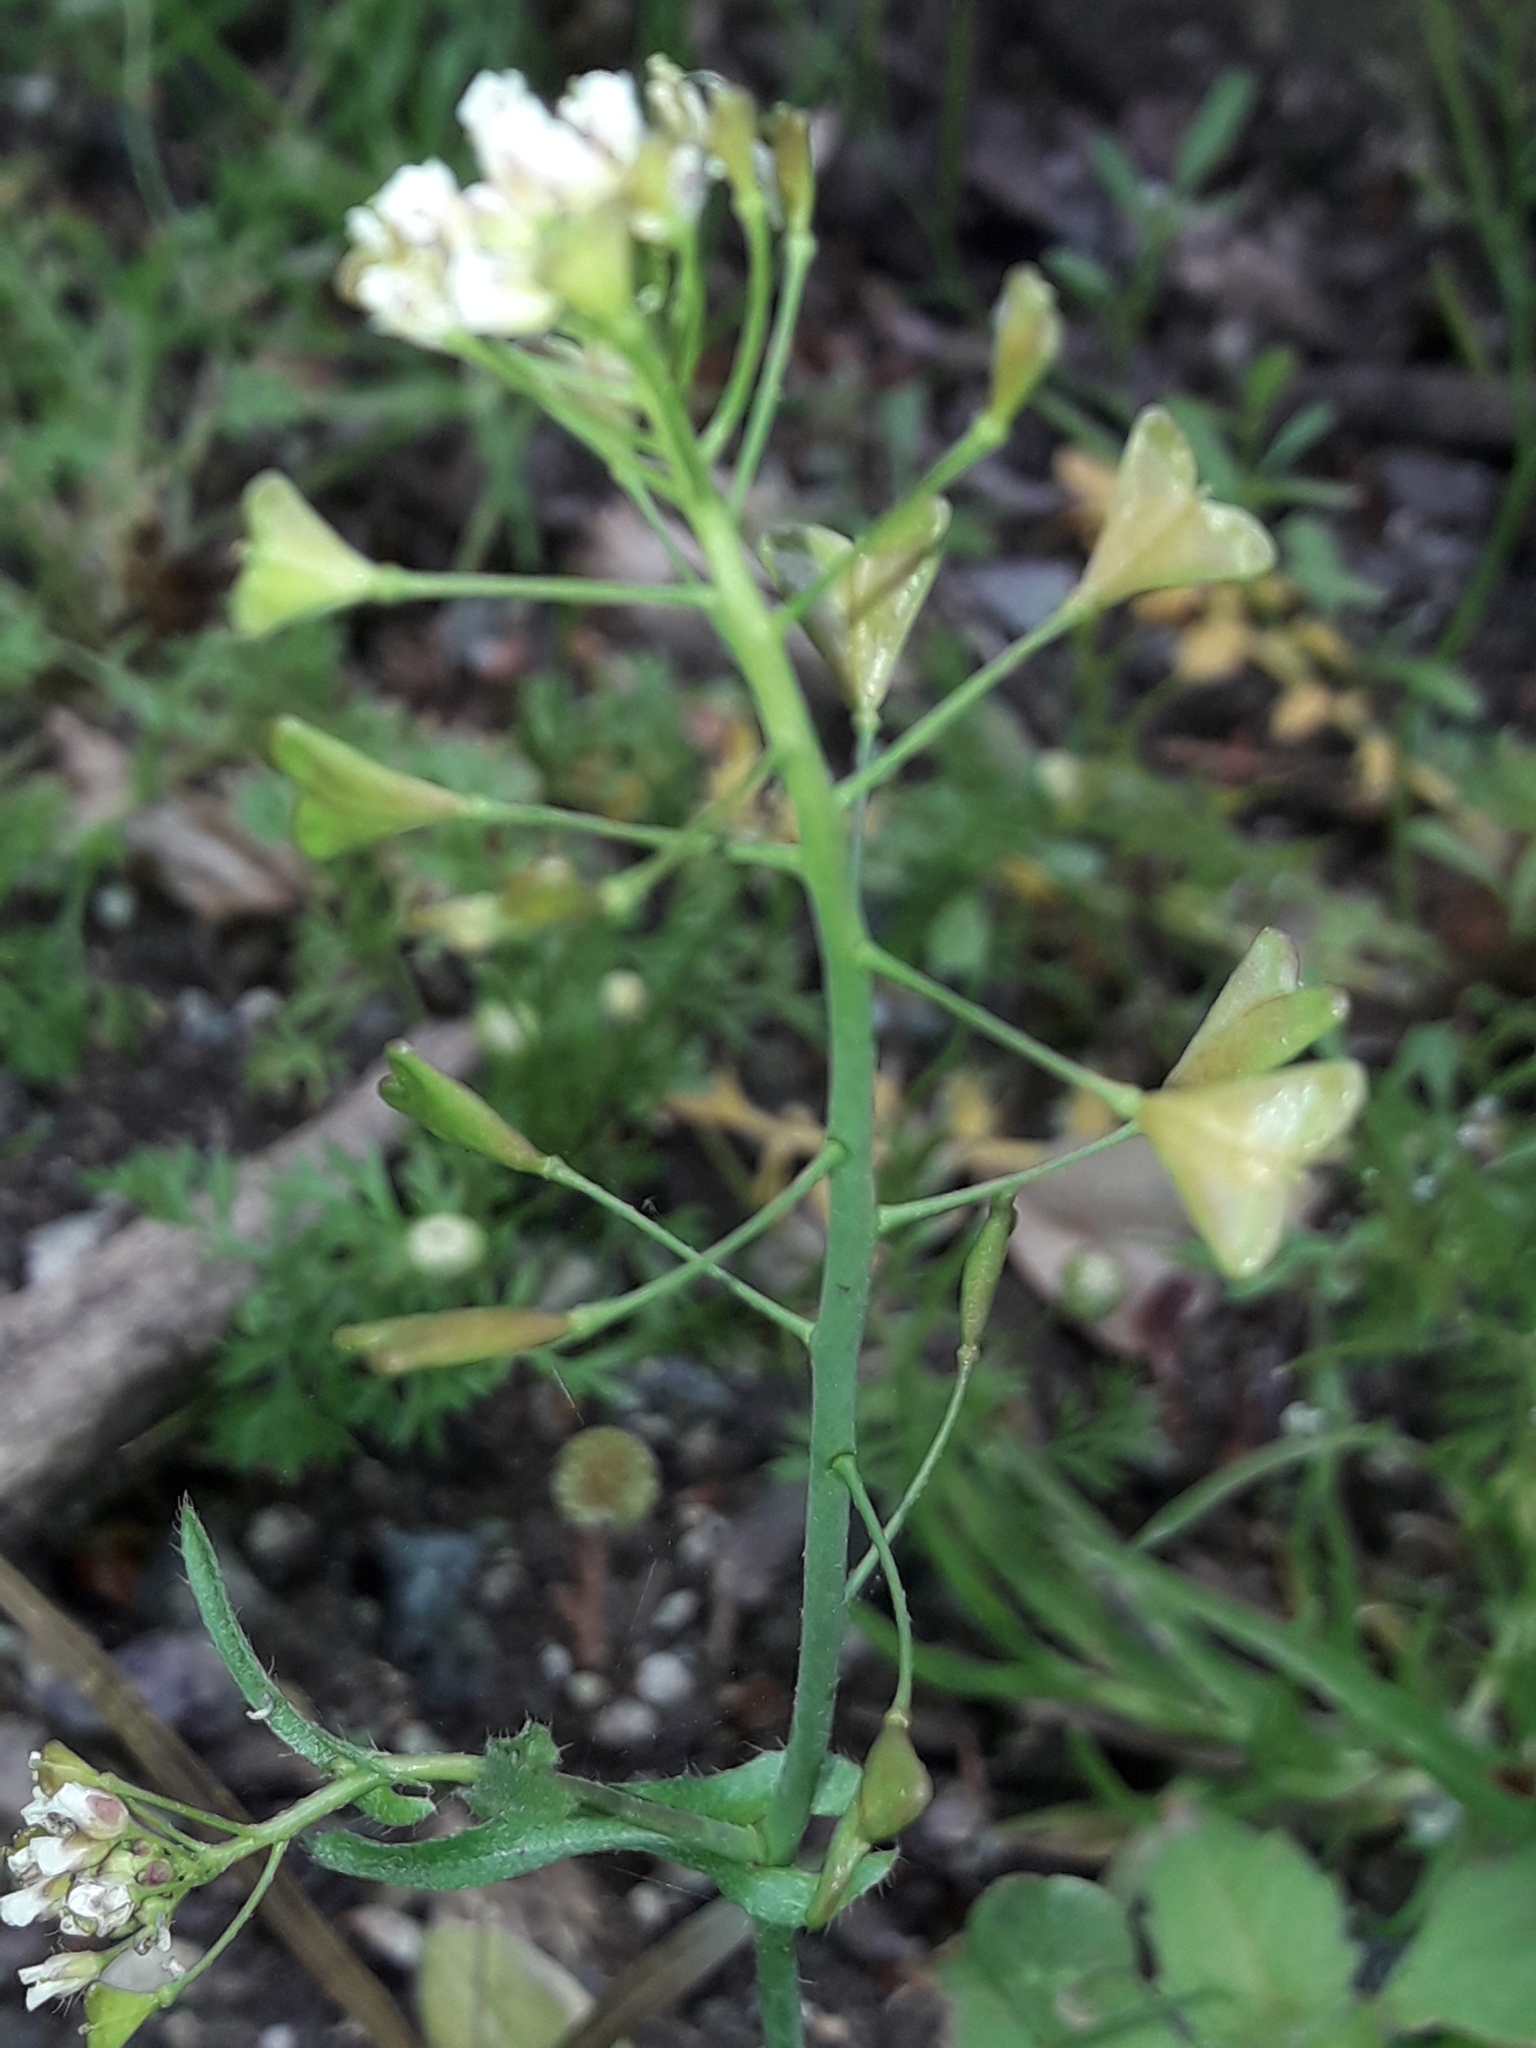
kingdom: Plantae
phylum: Tracheophyta
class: Magnoliopsida
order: Brassicales
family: Brassicaceae
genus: Capsella
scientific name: Capsella bursa-pastoris
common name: Shepherd's purse
